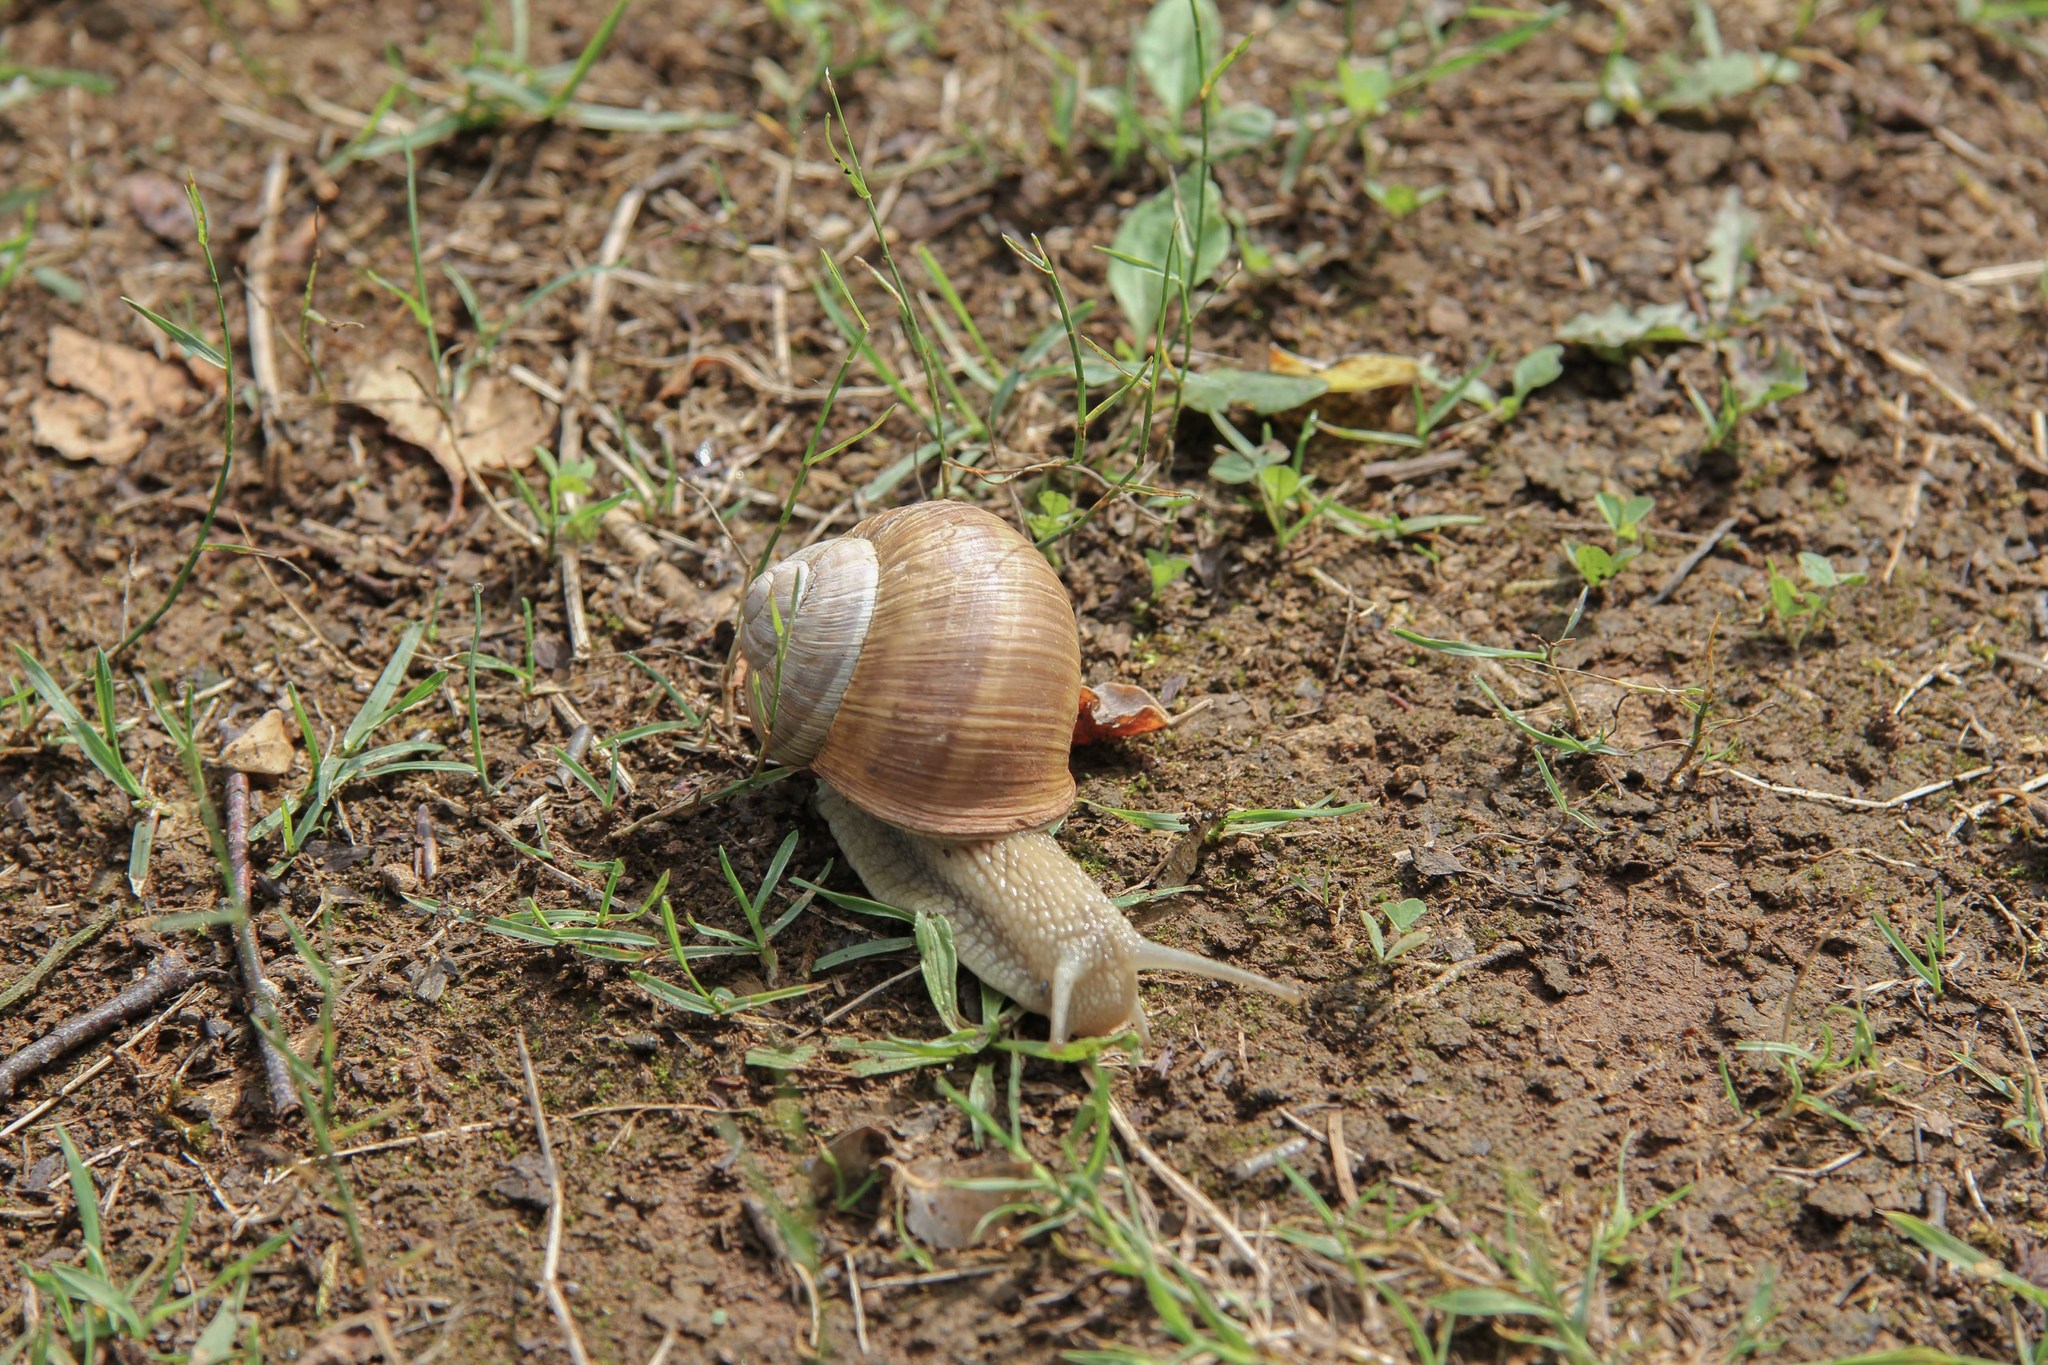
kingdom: Animalia
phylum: Mollusca
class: Gastropoda
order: Stylommatophora
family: Helicidae
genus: Helix
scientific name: Helix pomatia
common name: Roman snail
